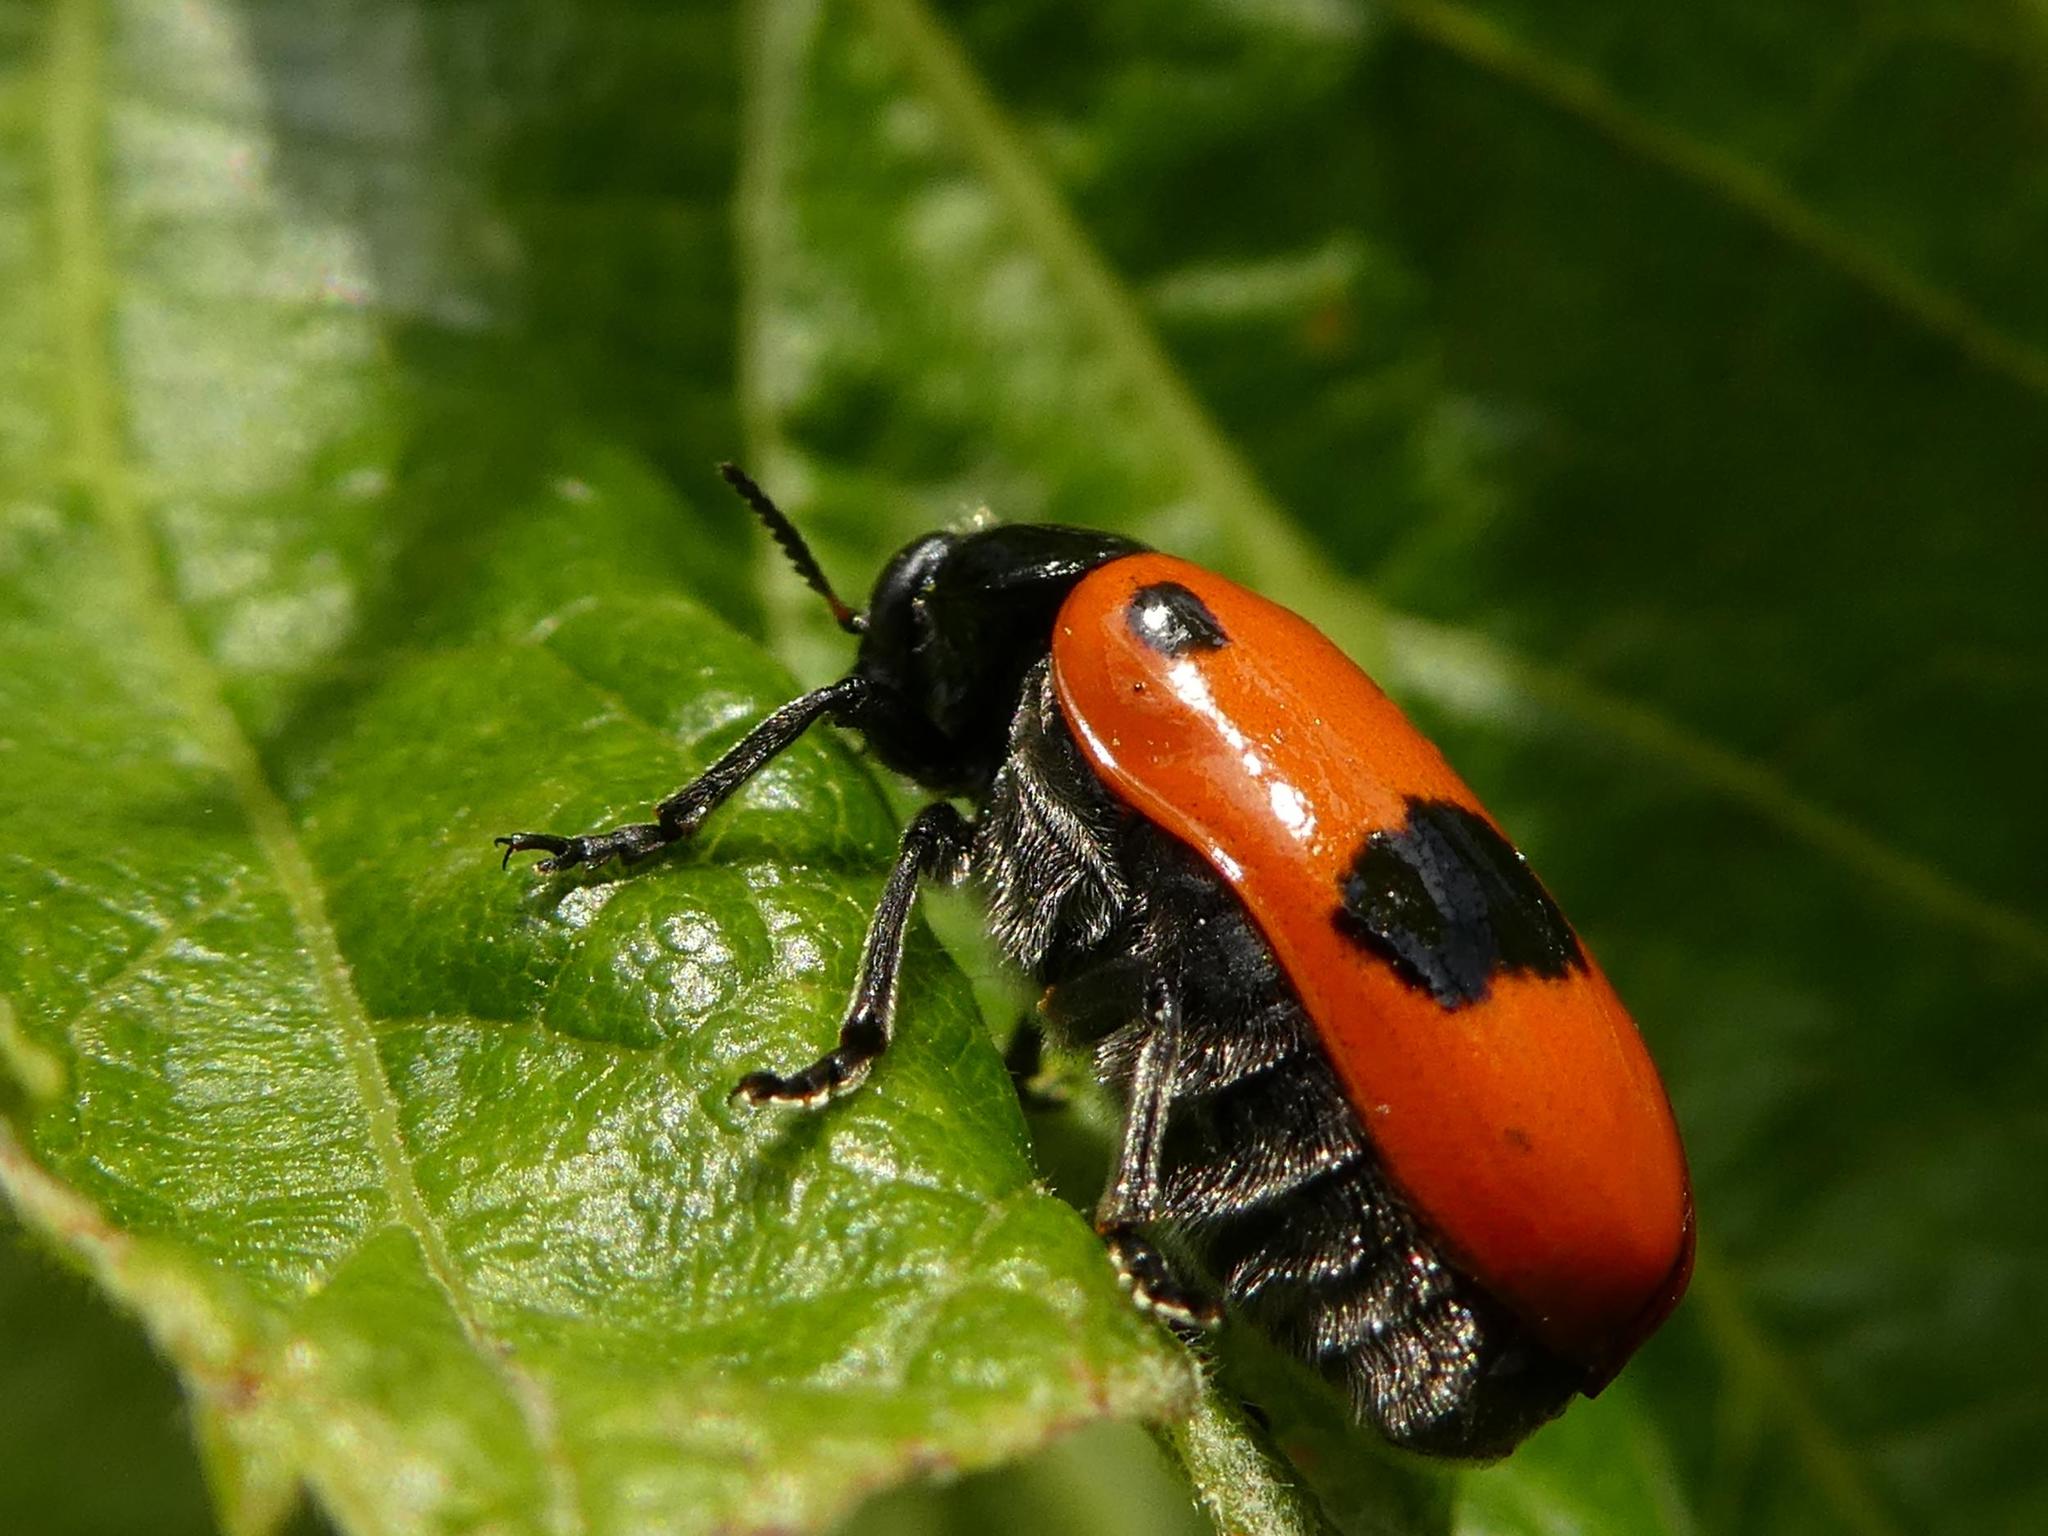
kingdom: Animalia
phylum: Arthropoda
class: Insecta
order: Coleoptera
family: Chrysomelidae
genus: Clytra
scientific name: Clytra laeviuscula
